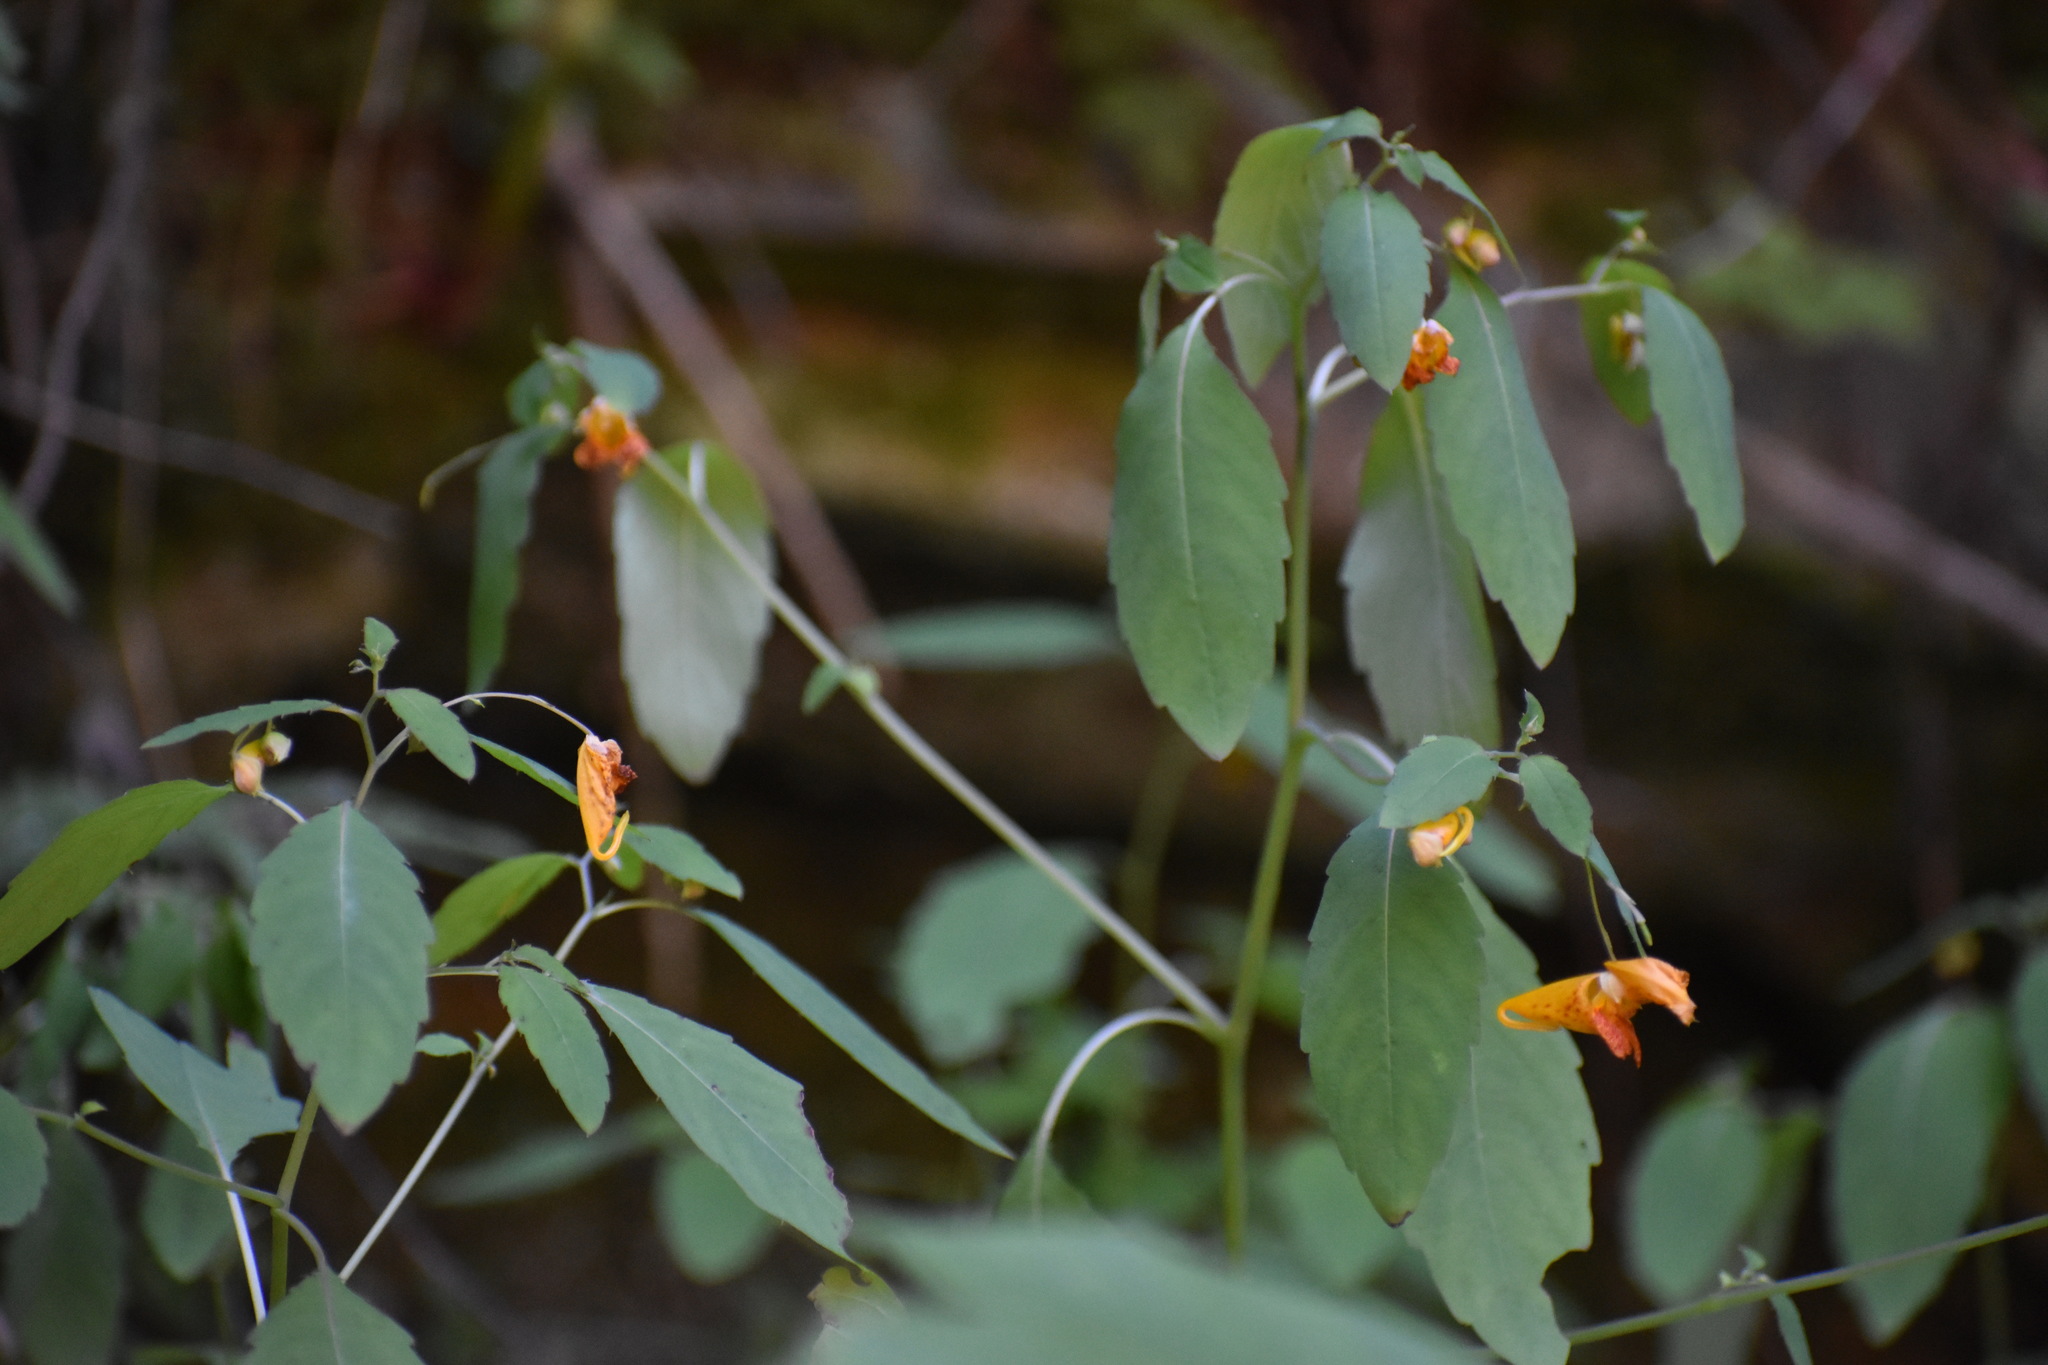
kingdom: Plantae
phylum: Tracheophyta
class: Magnoliopsida
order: Ericales
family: Balsaminaceae
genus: Impatiens
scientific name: Impatiens capensis
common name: Orange balsam
